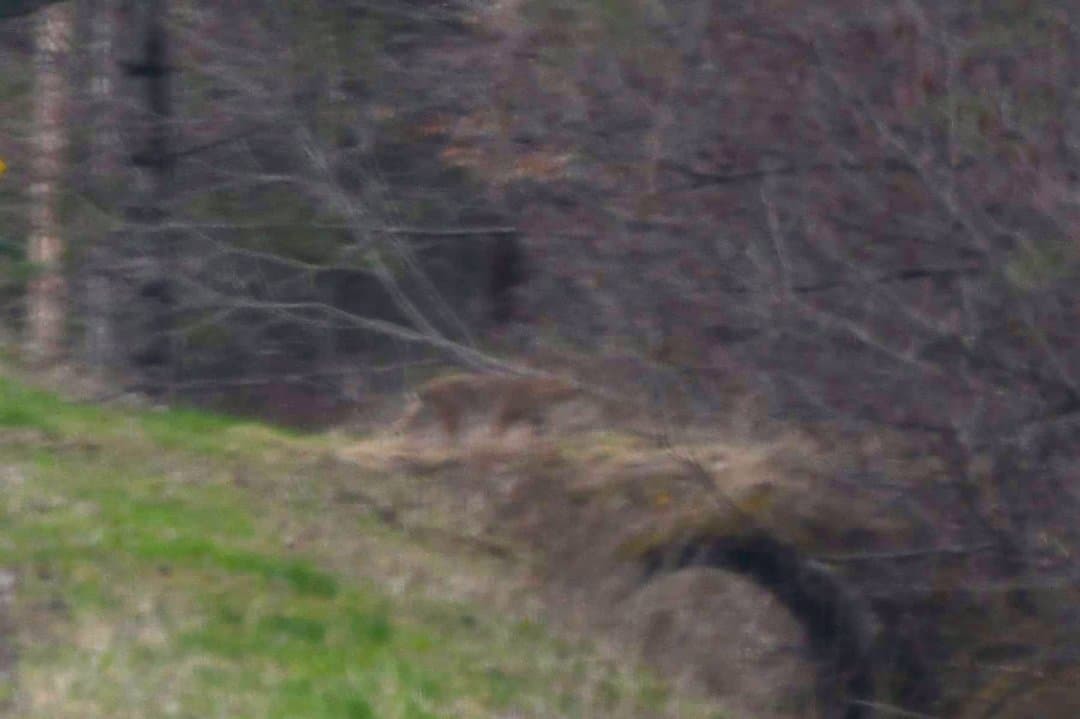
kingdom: Animalia
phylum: Chordata
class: Mammalia
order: Carnivora
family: Felidae
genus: Lynx
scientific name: Lynx rufus
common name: Bobcat
